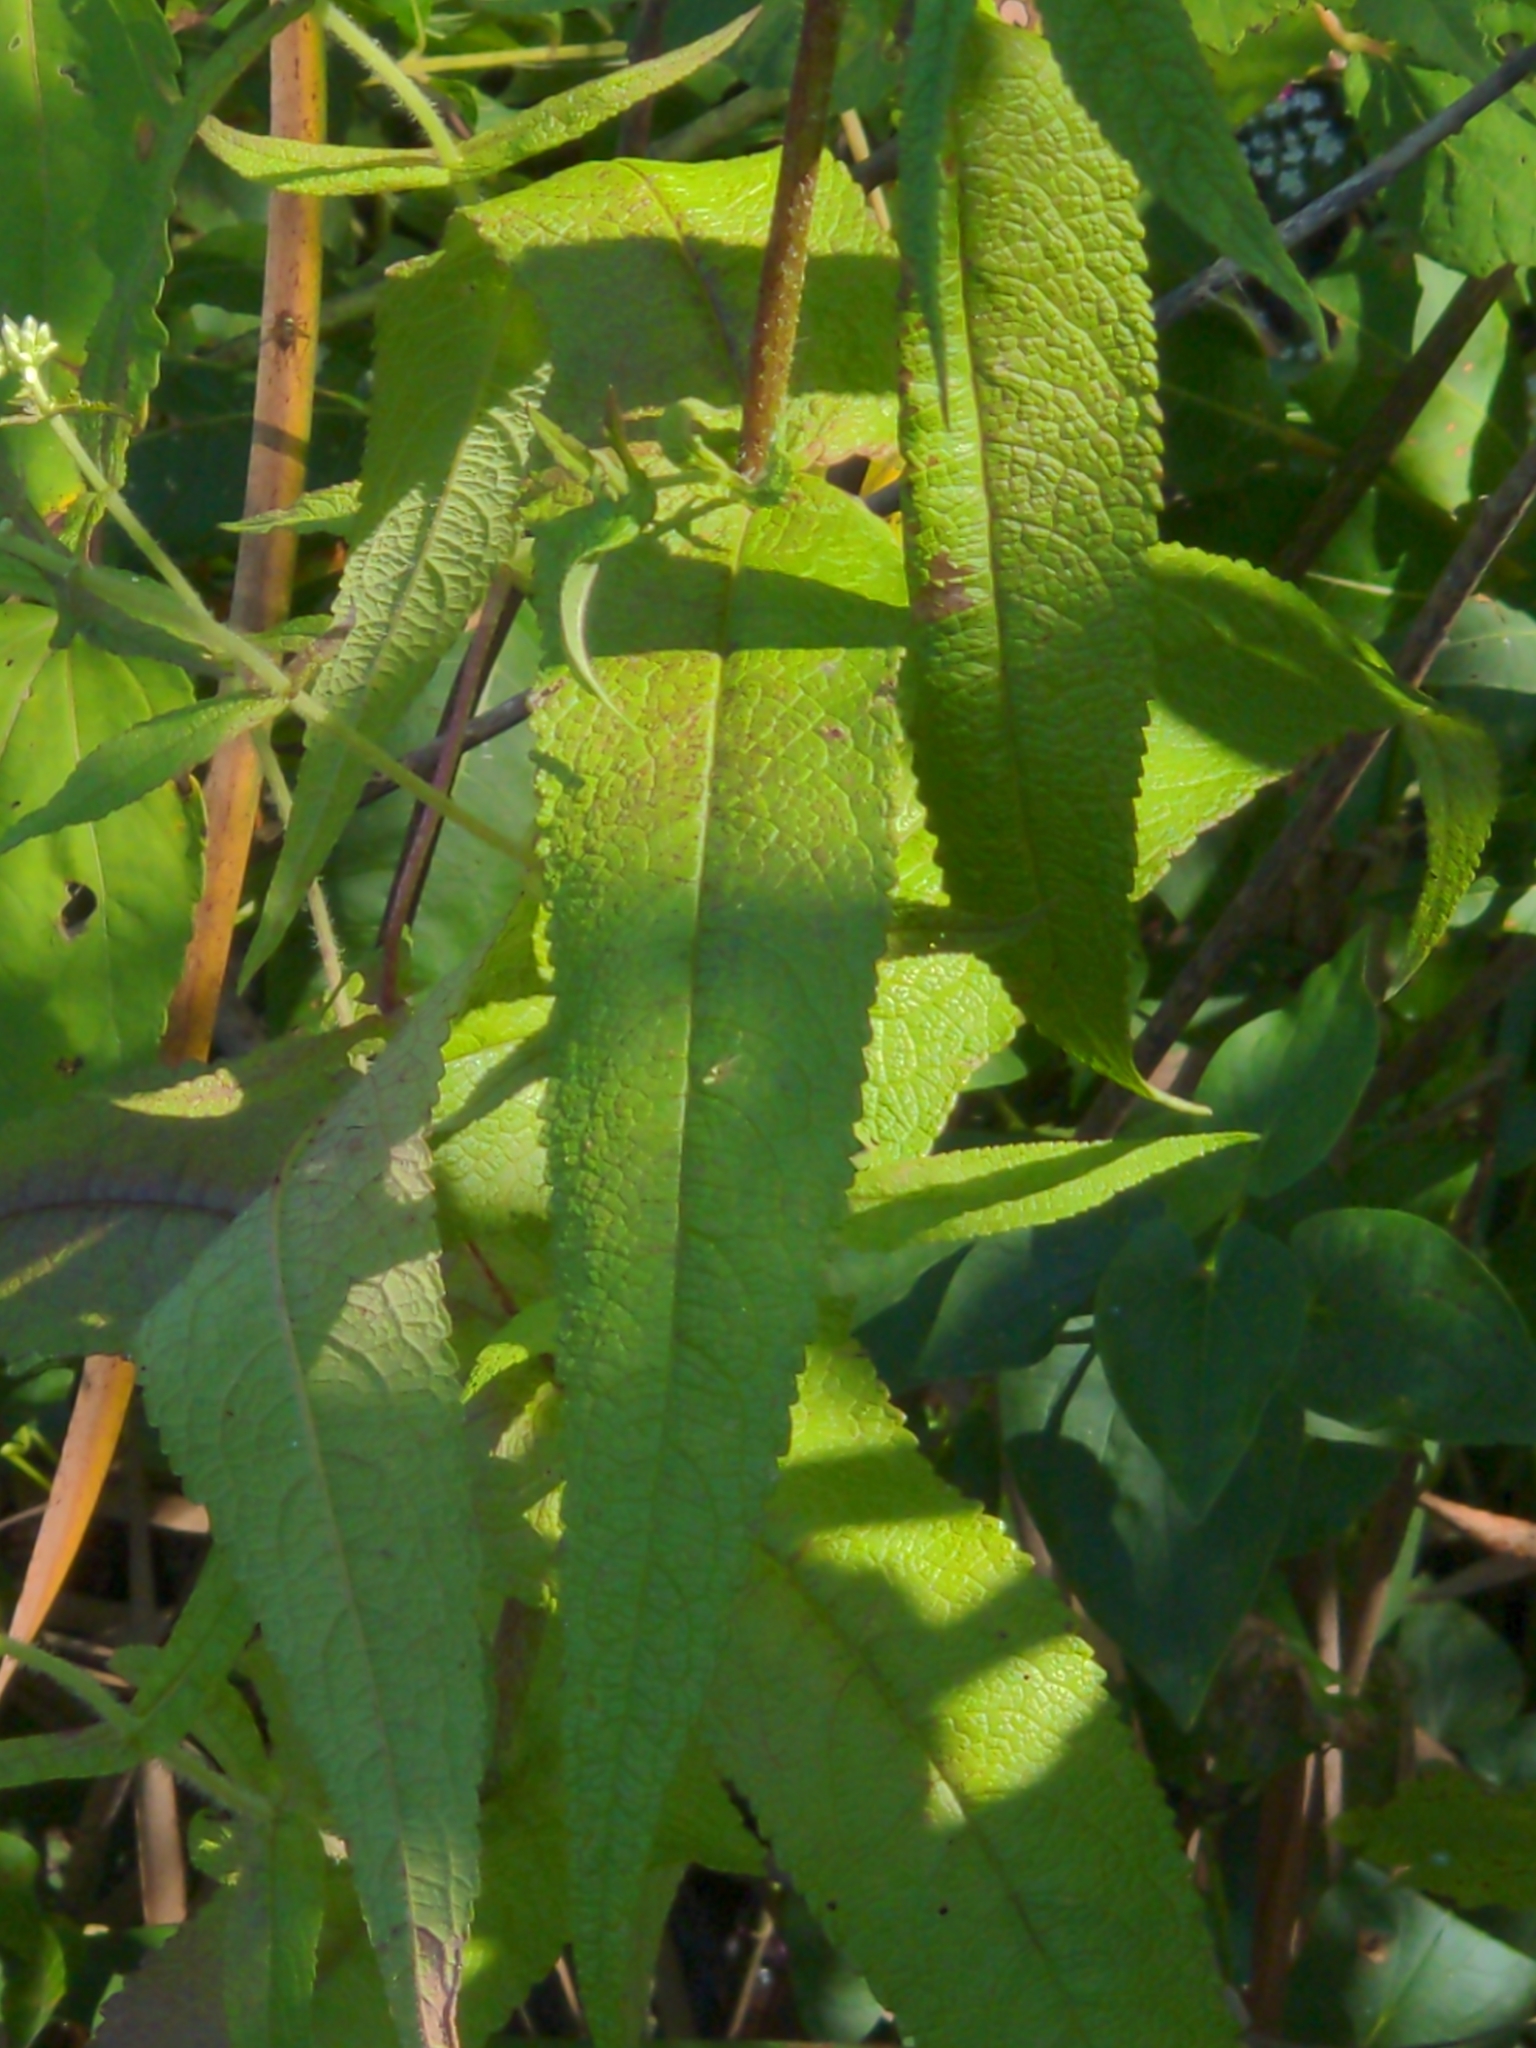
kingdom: Plantae
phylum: Tracheophyta
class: Magnoliopsida
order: Asterales
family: Asteraceae
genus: Eupatorium
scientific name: Eupatorium perfoliatum
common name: Boneset
